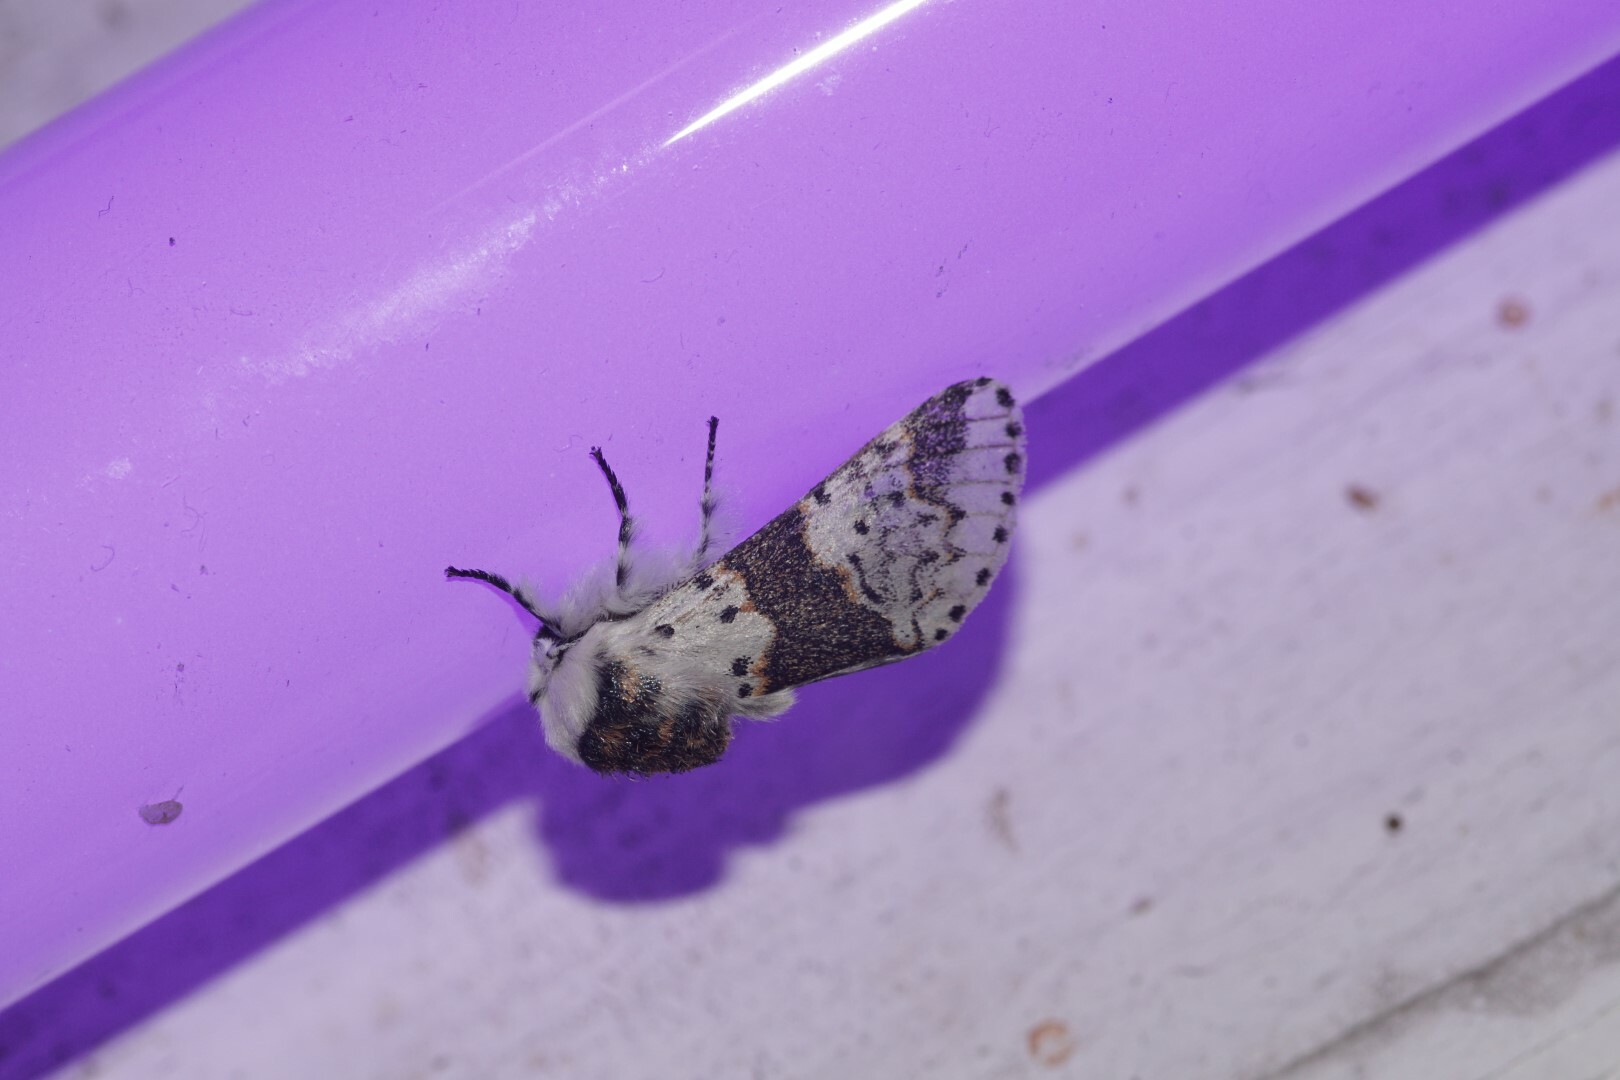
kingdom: Animalia
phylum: Arthropoda
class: Insecta
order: Lepidoptera
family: Notodontidae
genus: Furcula
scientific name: Furcula bicuspis
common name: Alder kitten
